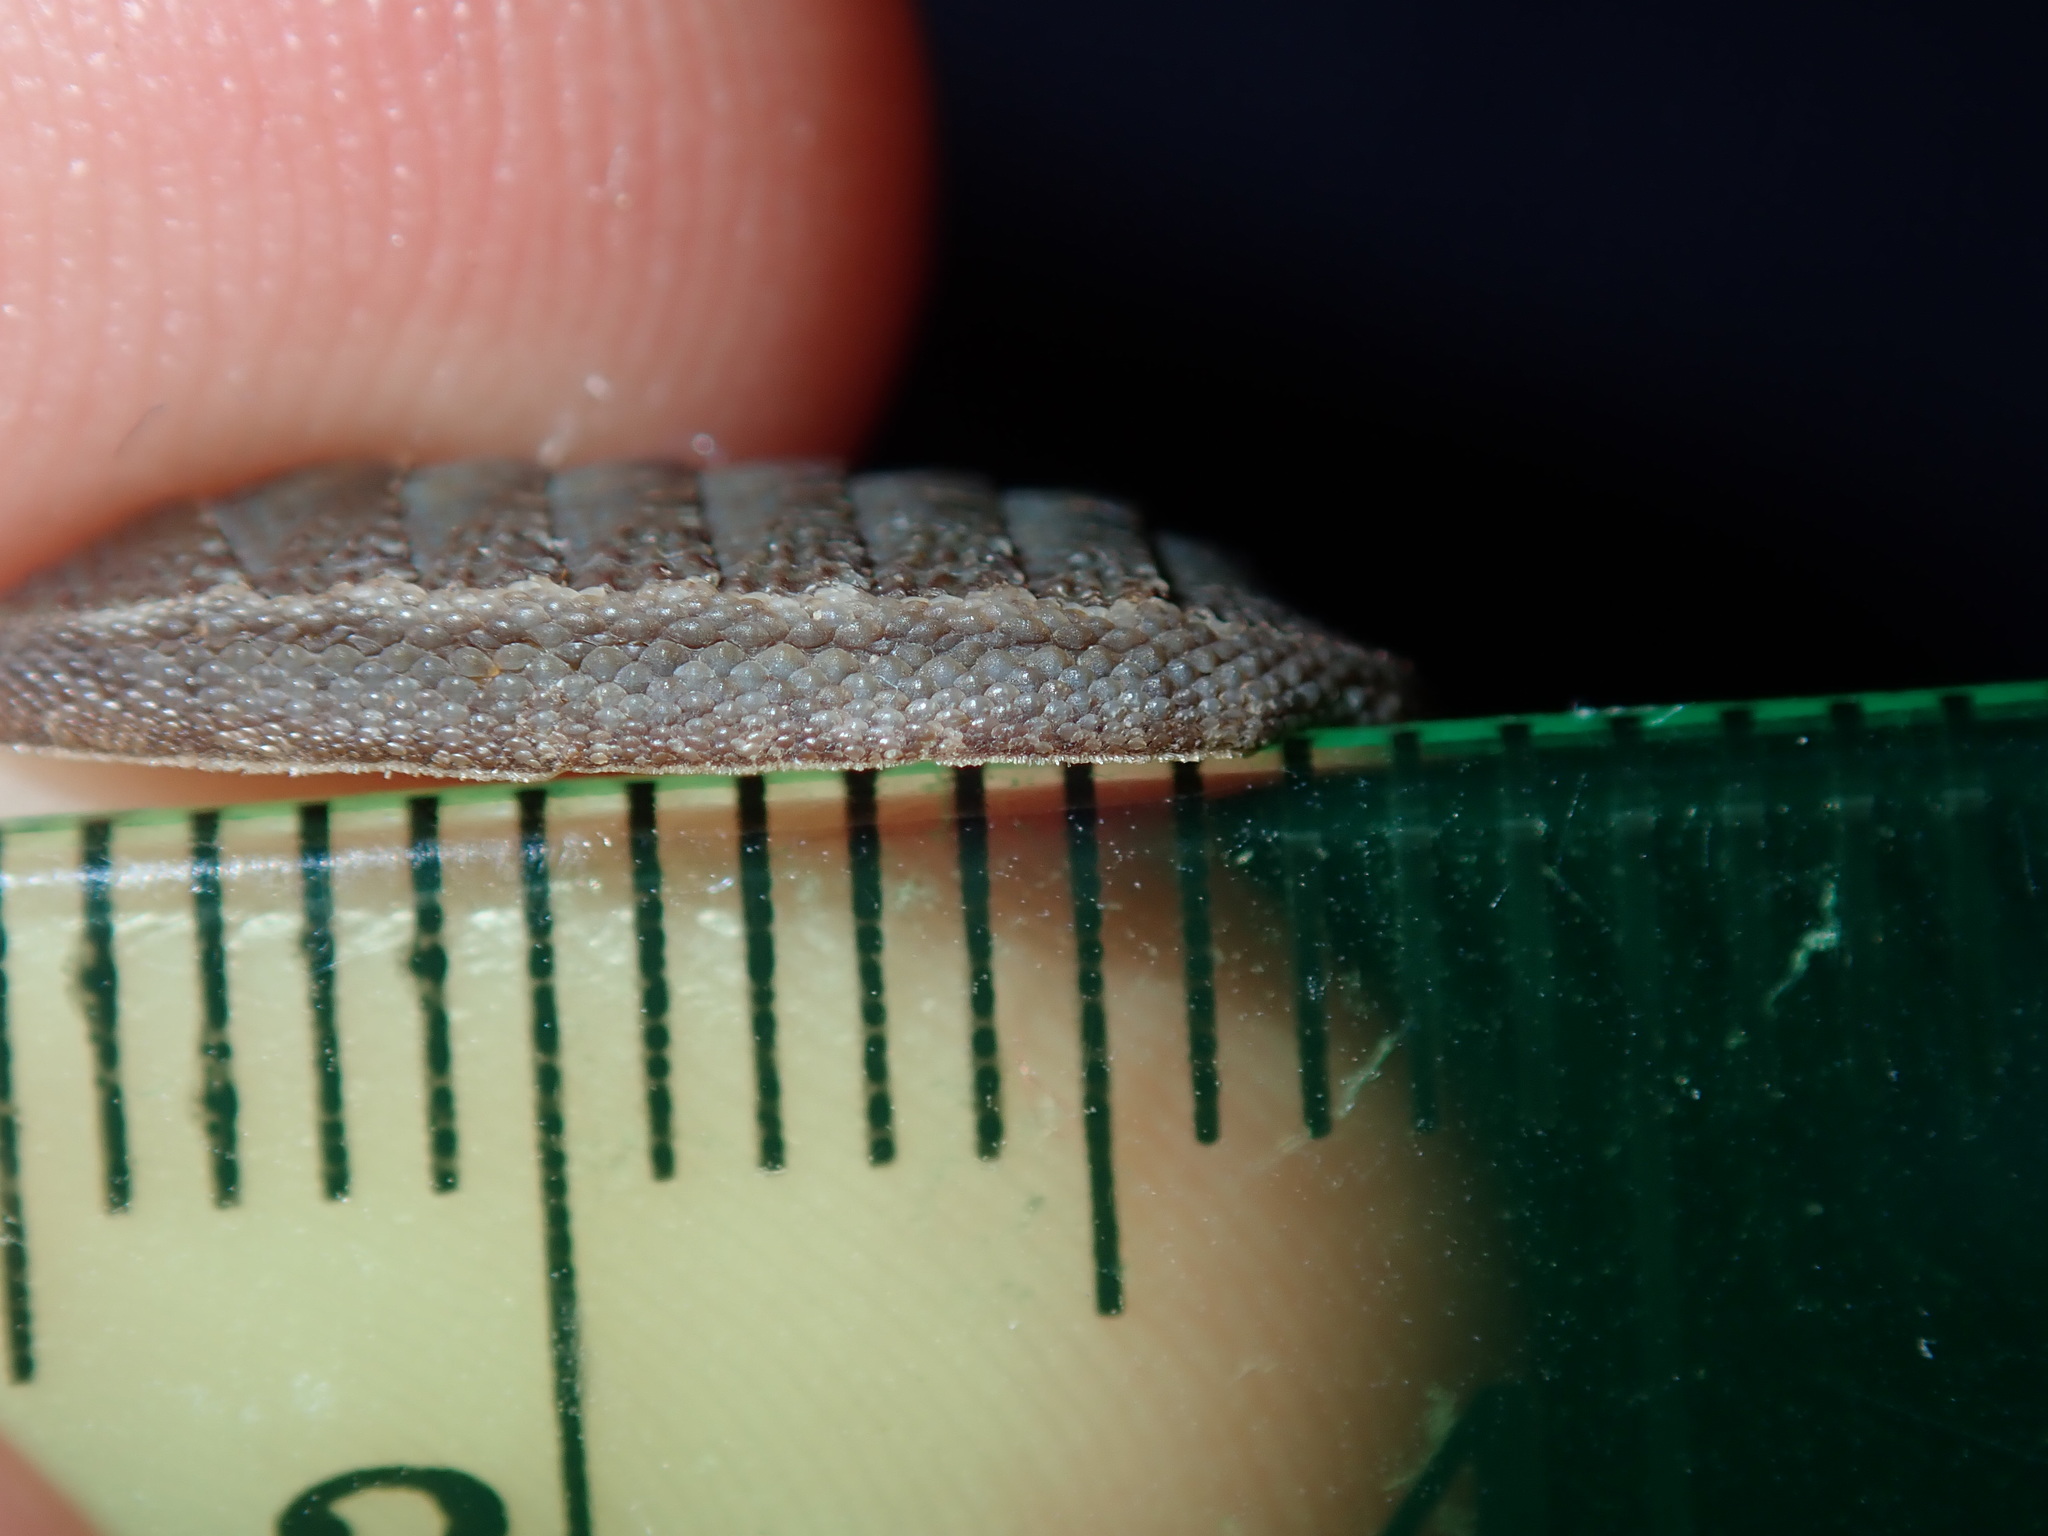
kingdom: Animalia
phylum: Mollusca
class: Polyplacophora
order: Chitonida
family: Ischnochitonidae
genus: Ischnochiton
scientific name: Ischnochiton australis
